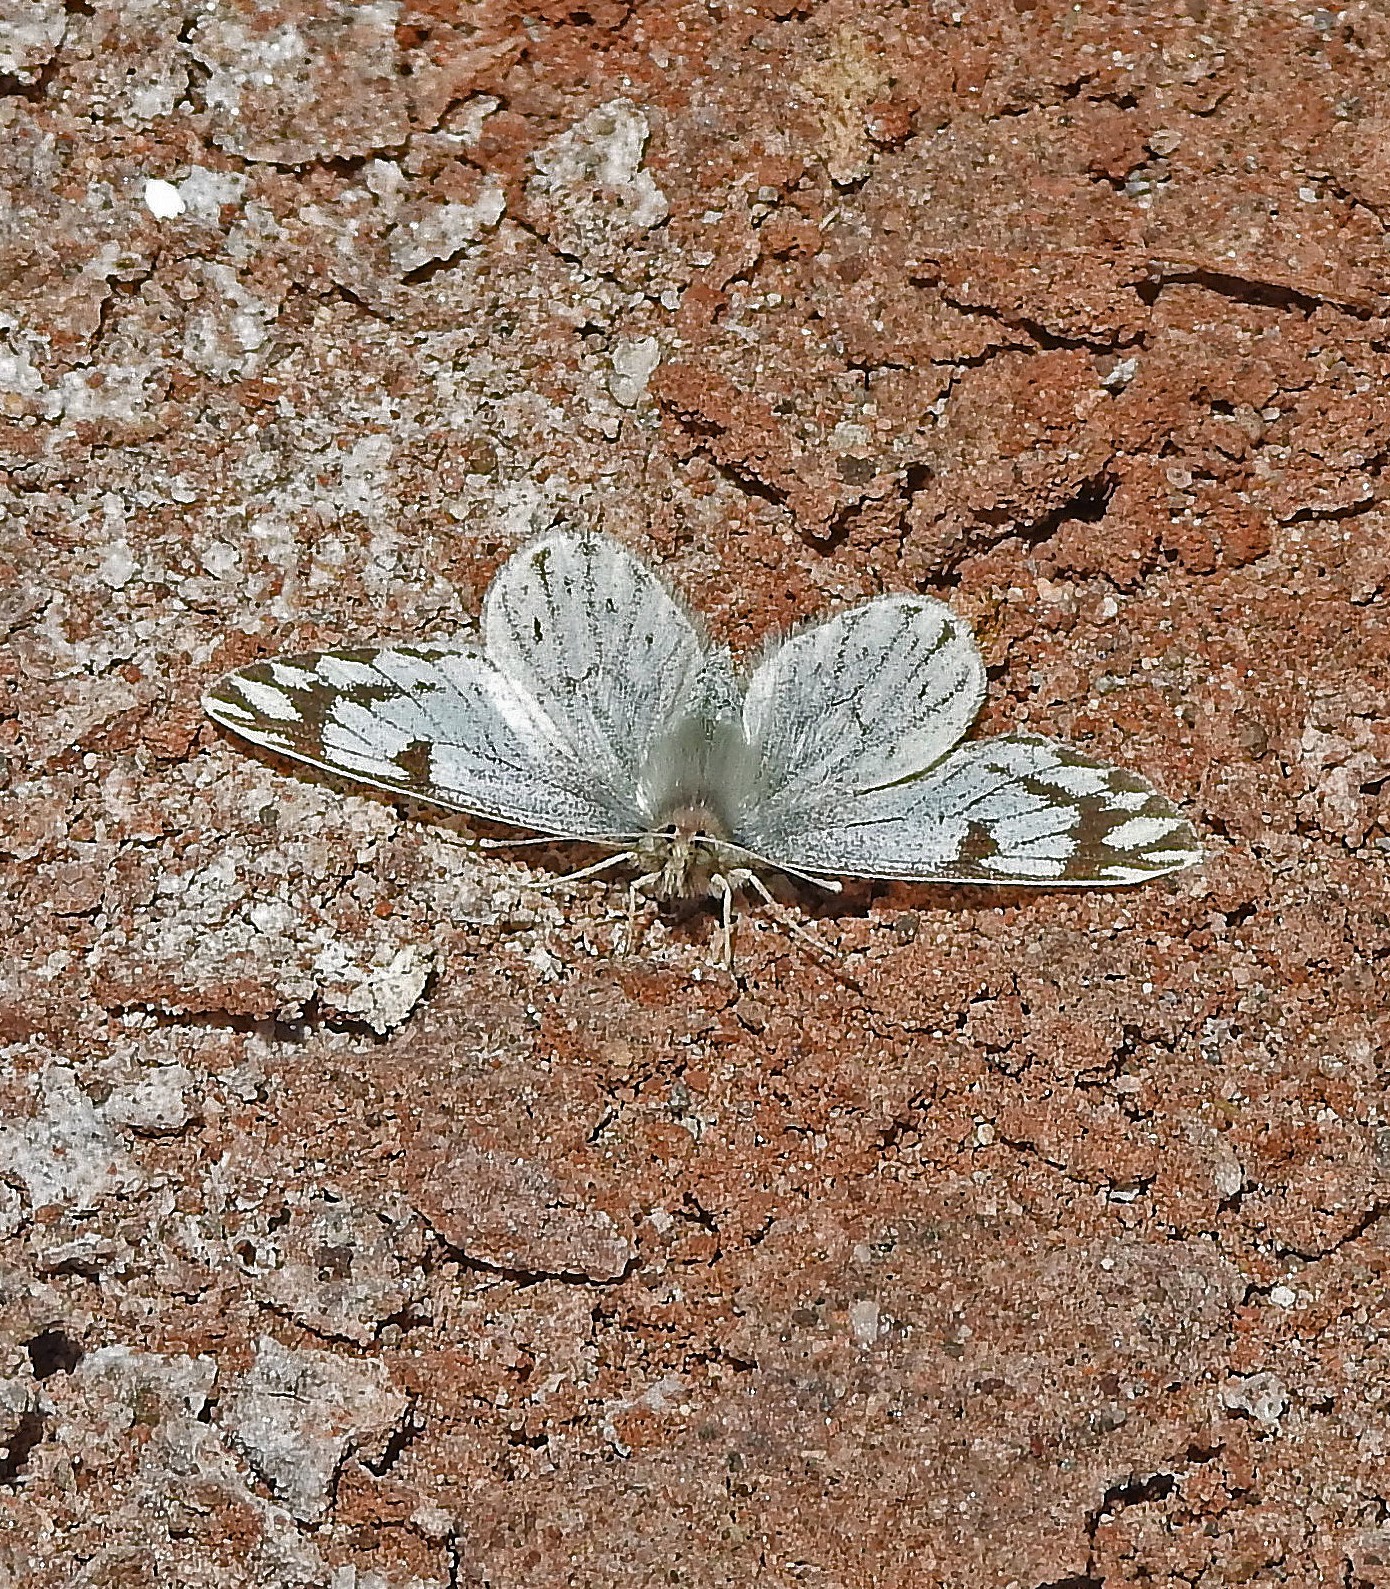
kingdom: Animalia
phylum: Arthropoda
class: Insecta
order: Lepidoptera
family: Pieridae
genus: Phulia
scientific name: Phulia nymphula
